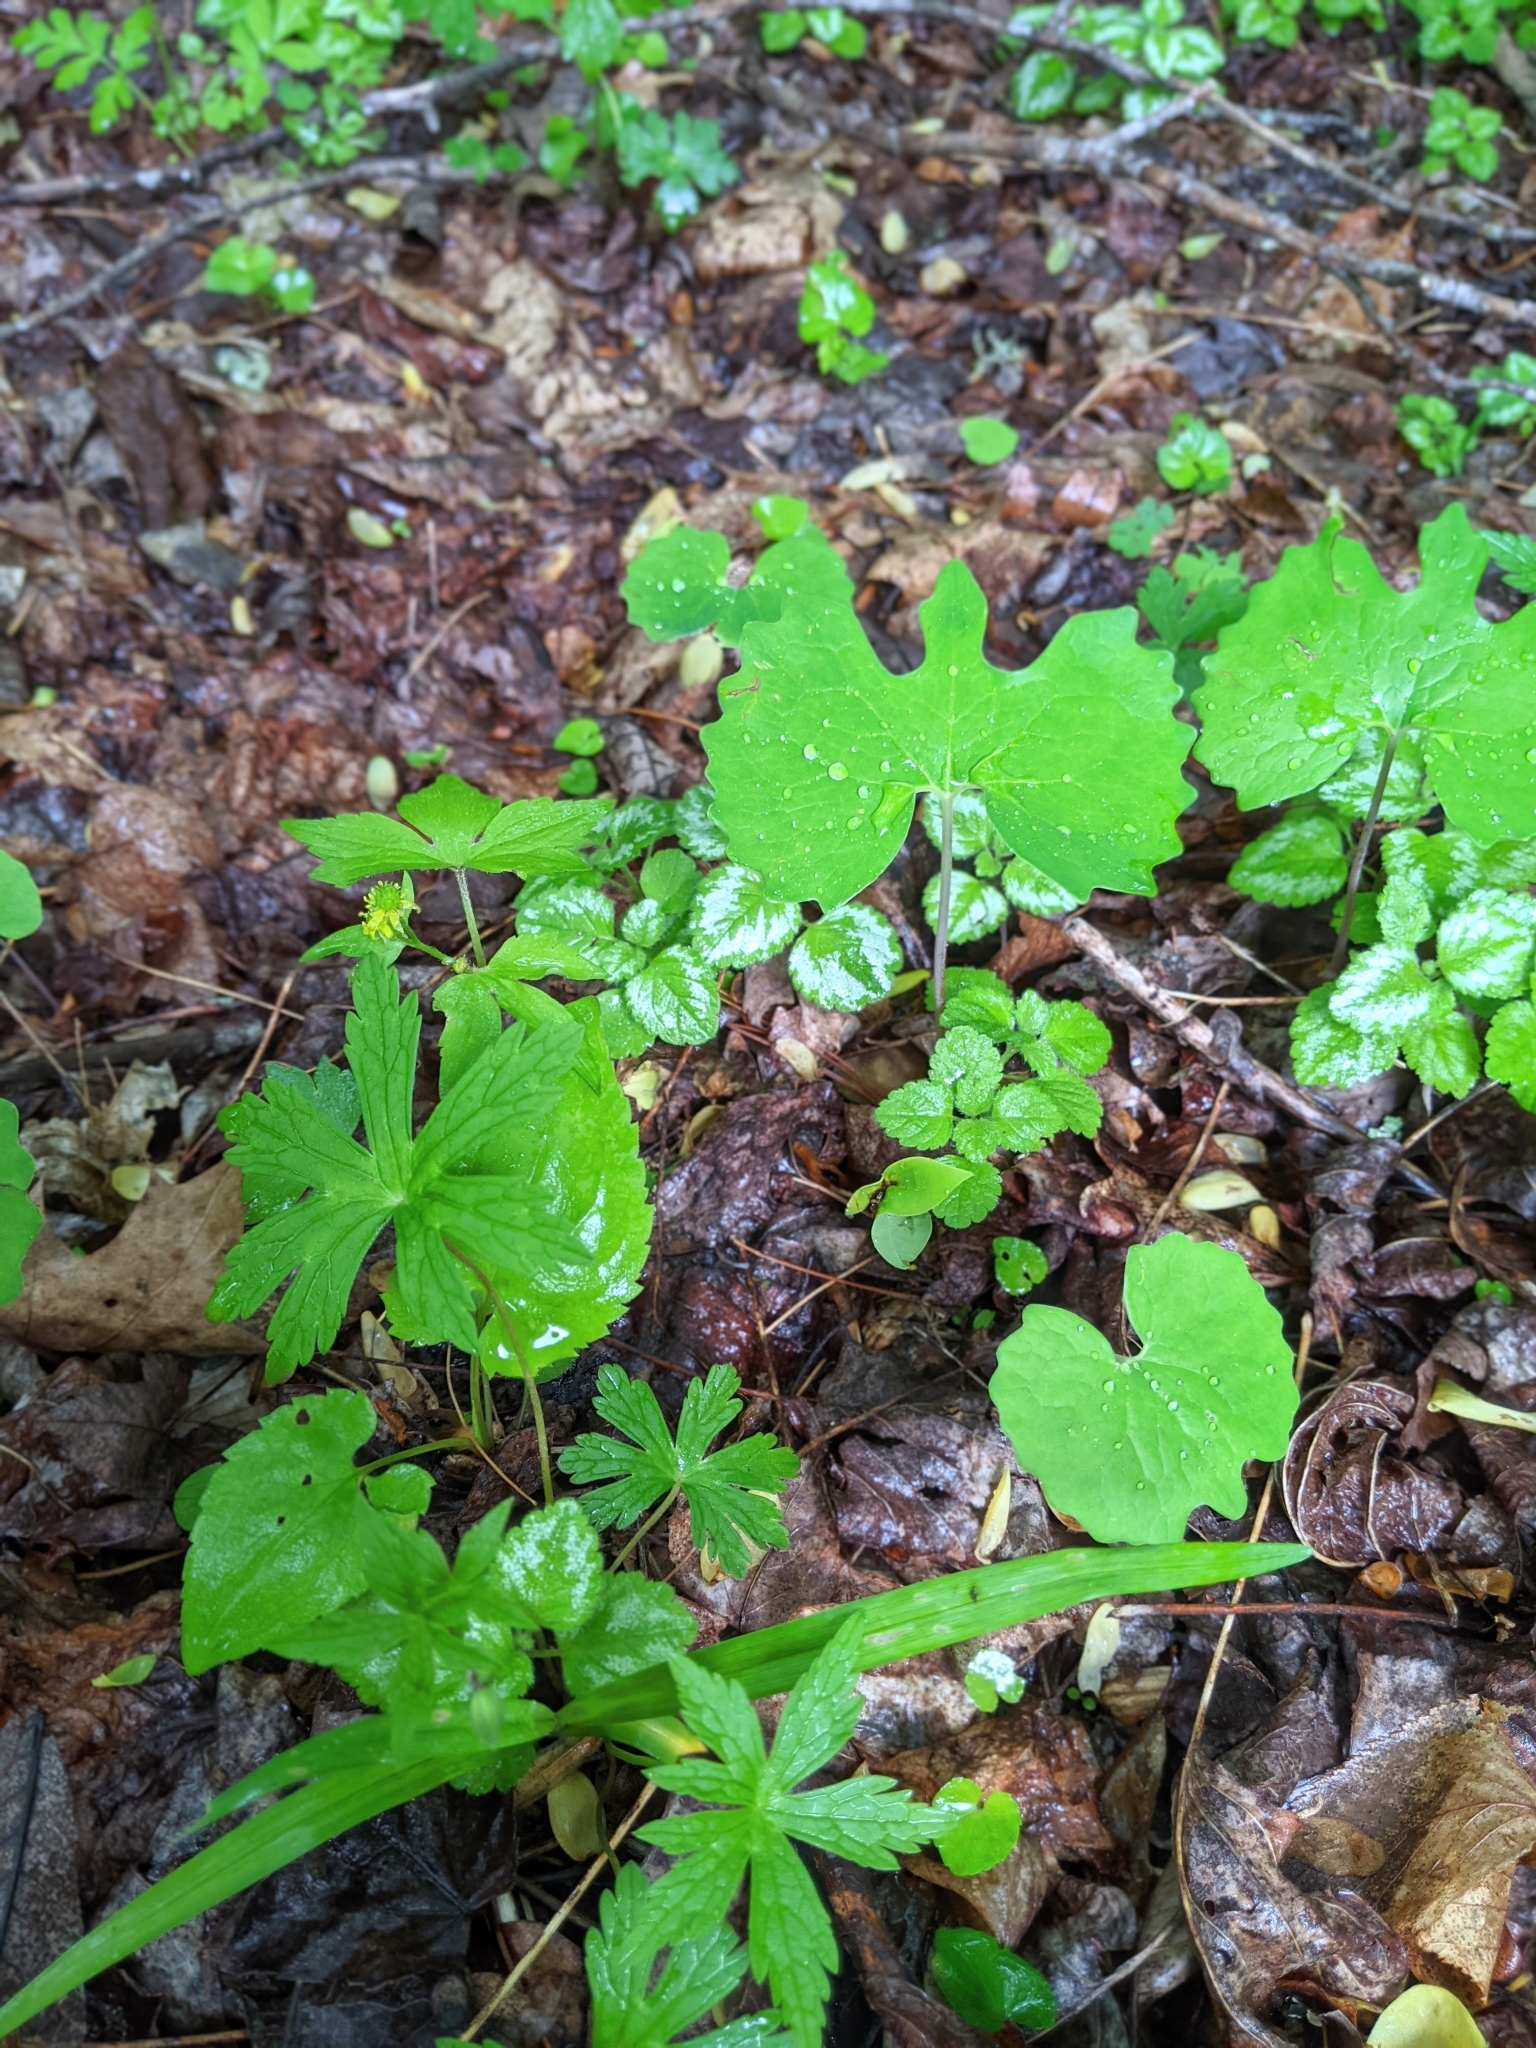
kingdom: Plantae
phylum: Tracheophyta
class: Magnoliopsida
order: Ranunculales
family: Papaveraceae
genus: Sanguinaria
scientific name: Sanguinaria canadensis
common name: Bloodroot
